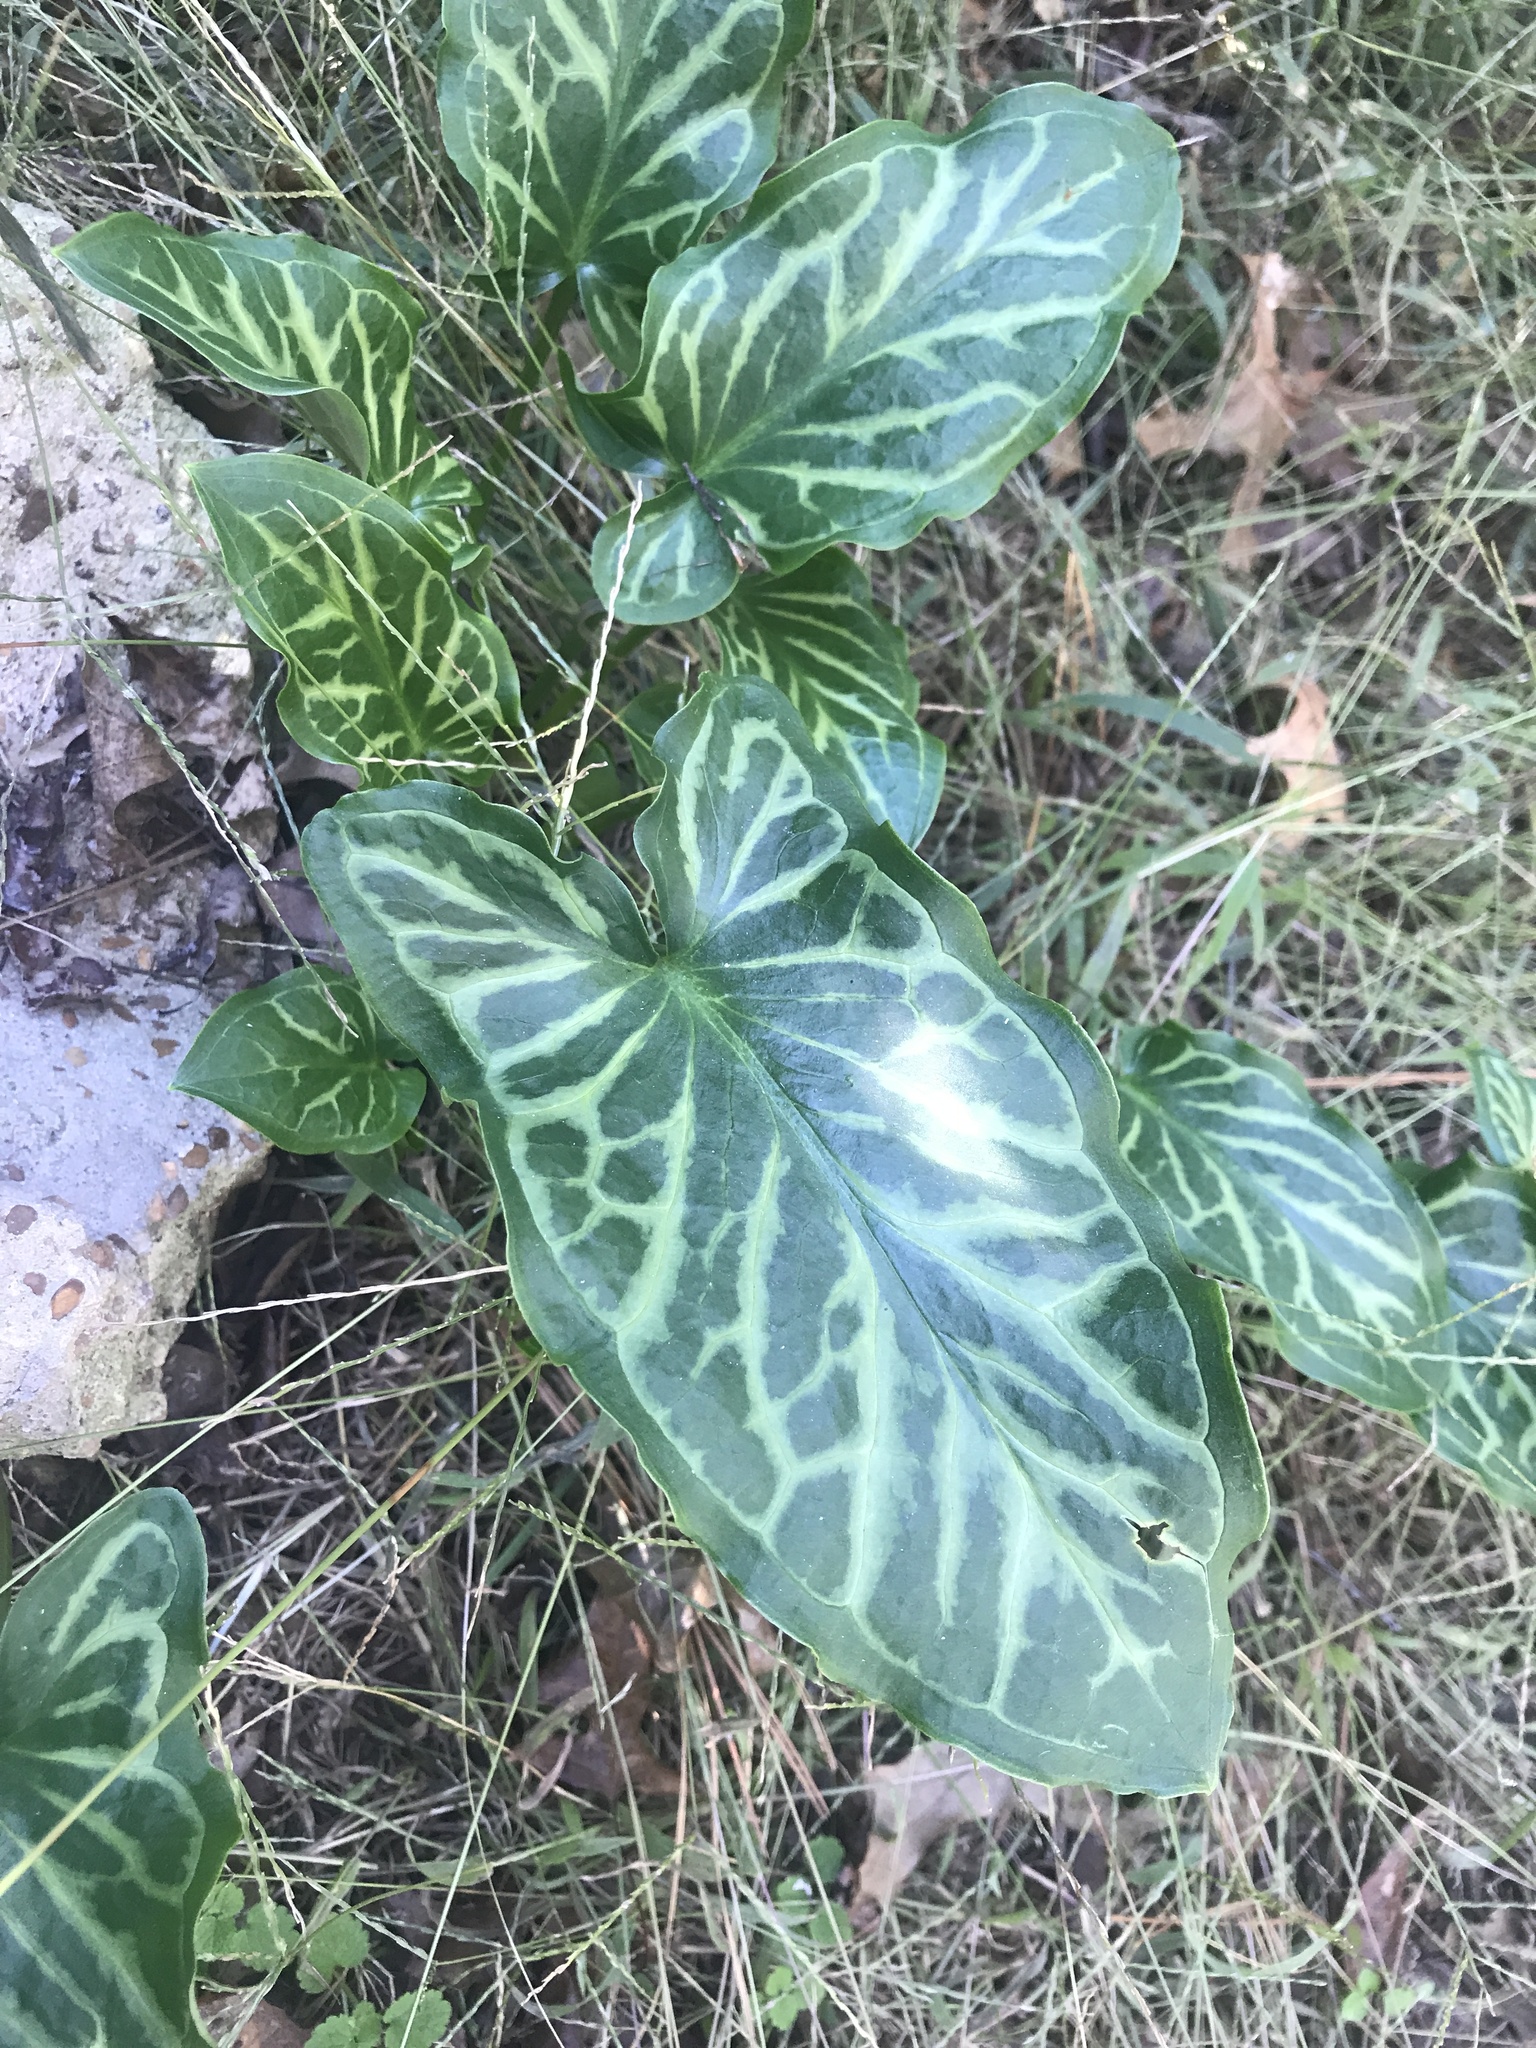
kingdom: Plantae
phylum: Tracheophyta
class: Liliopsida
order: Alismatales
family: Araceae
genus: Arum
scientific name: Arum italicum
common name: Italian lords-and-ladies
